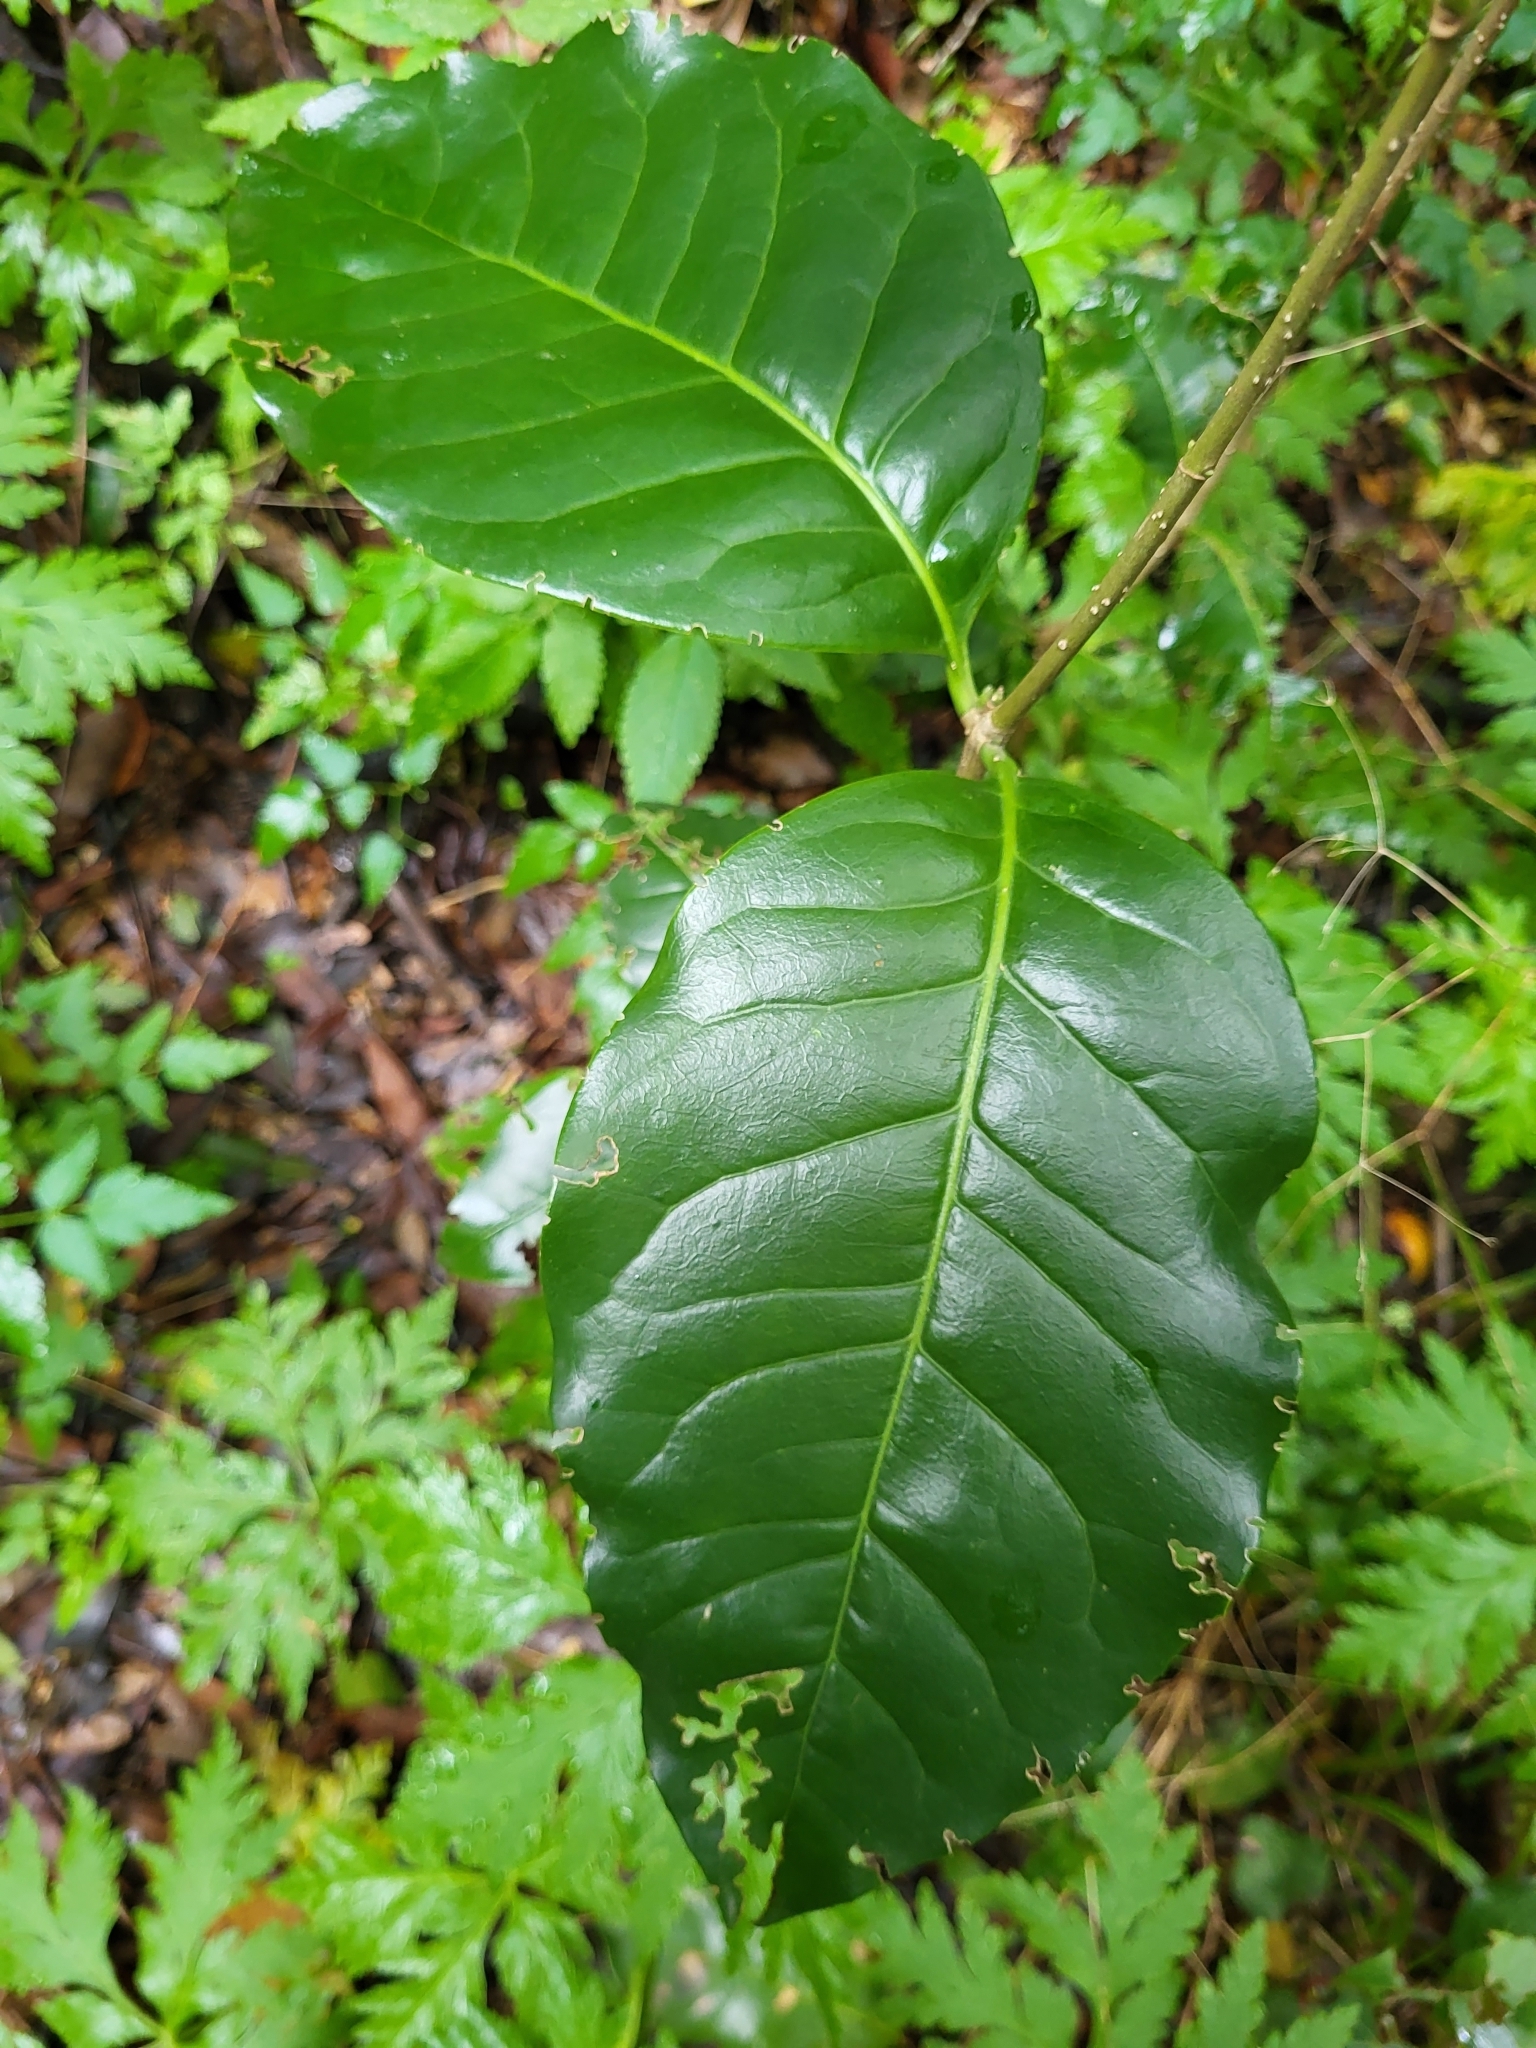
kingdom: Plantae
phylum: Tracheophyta
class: Magnoliopsida
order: Lamiales
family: Oleaceae
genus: Picconia
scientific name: Picconia excelsa
